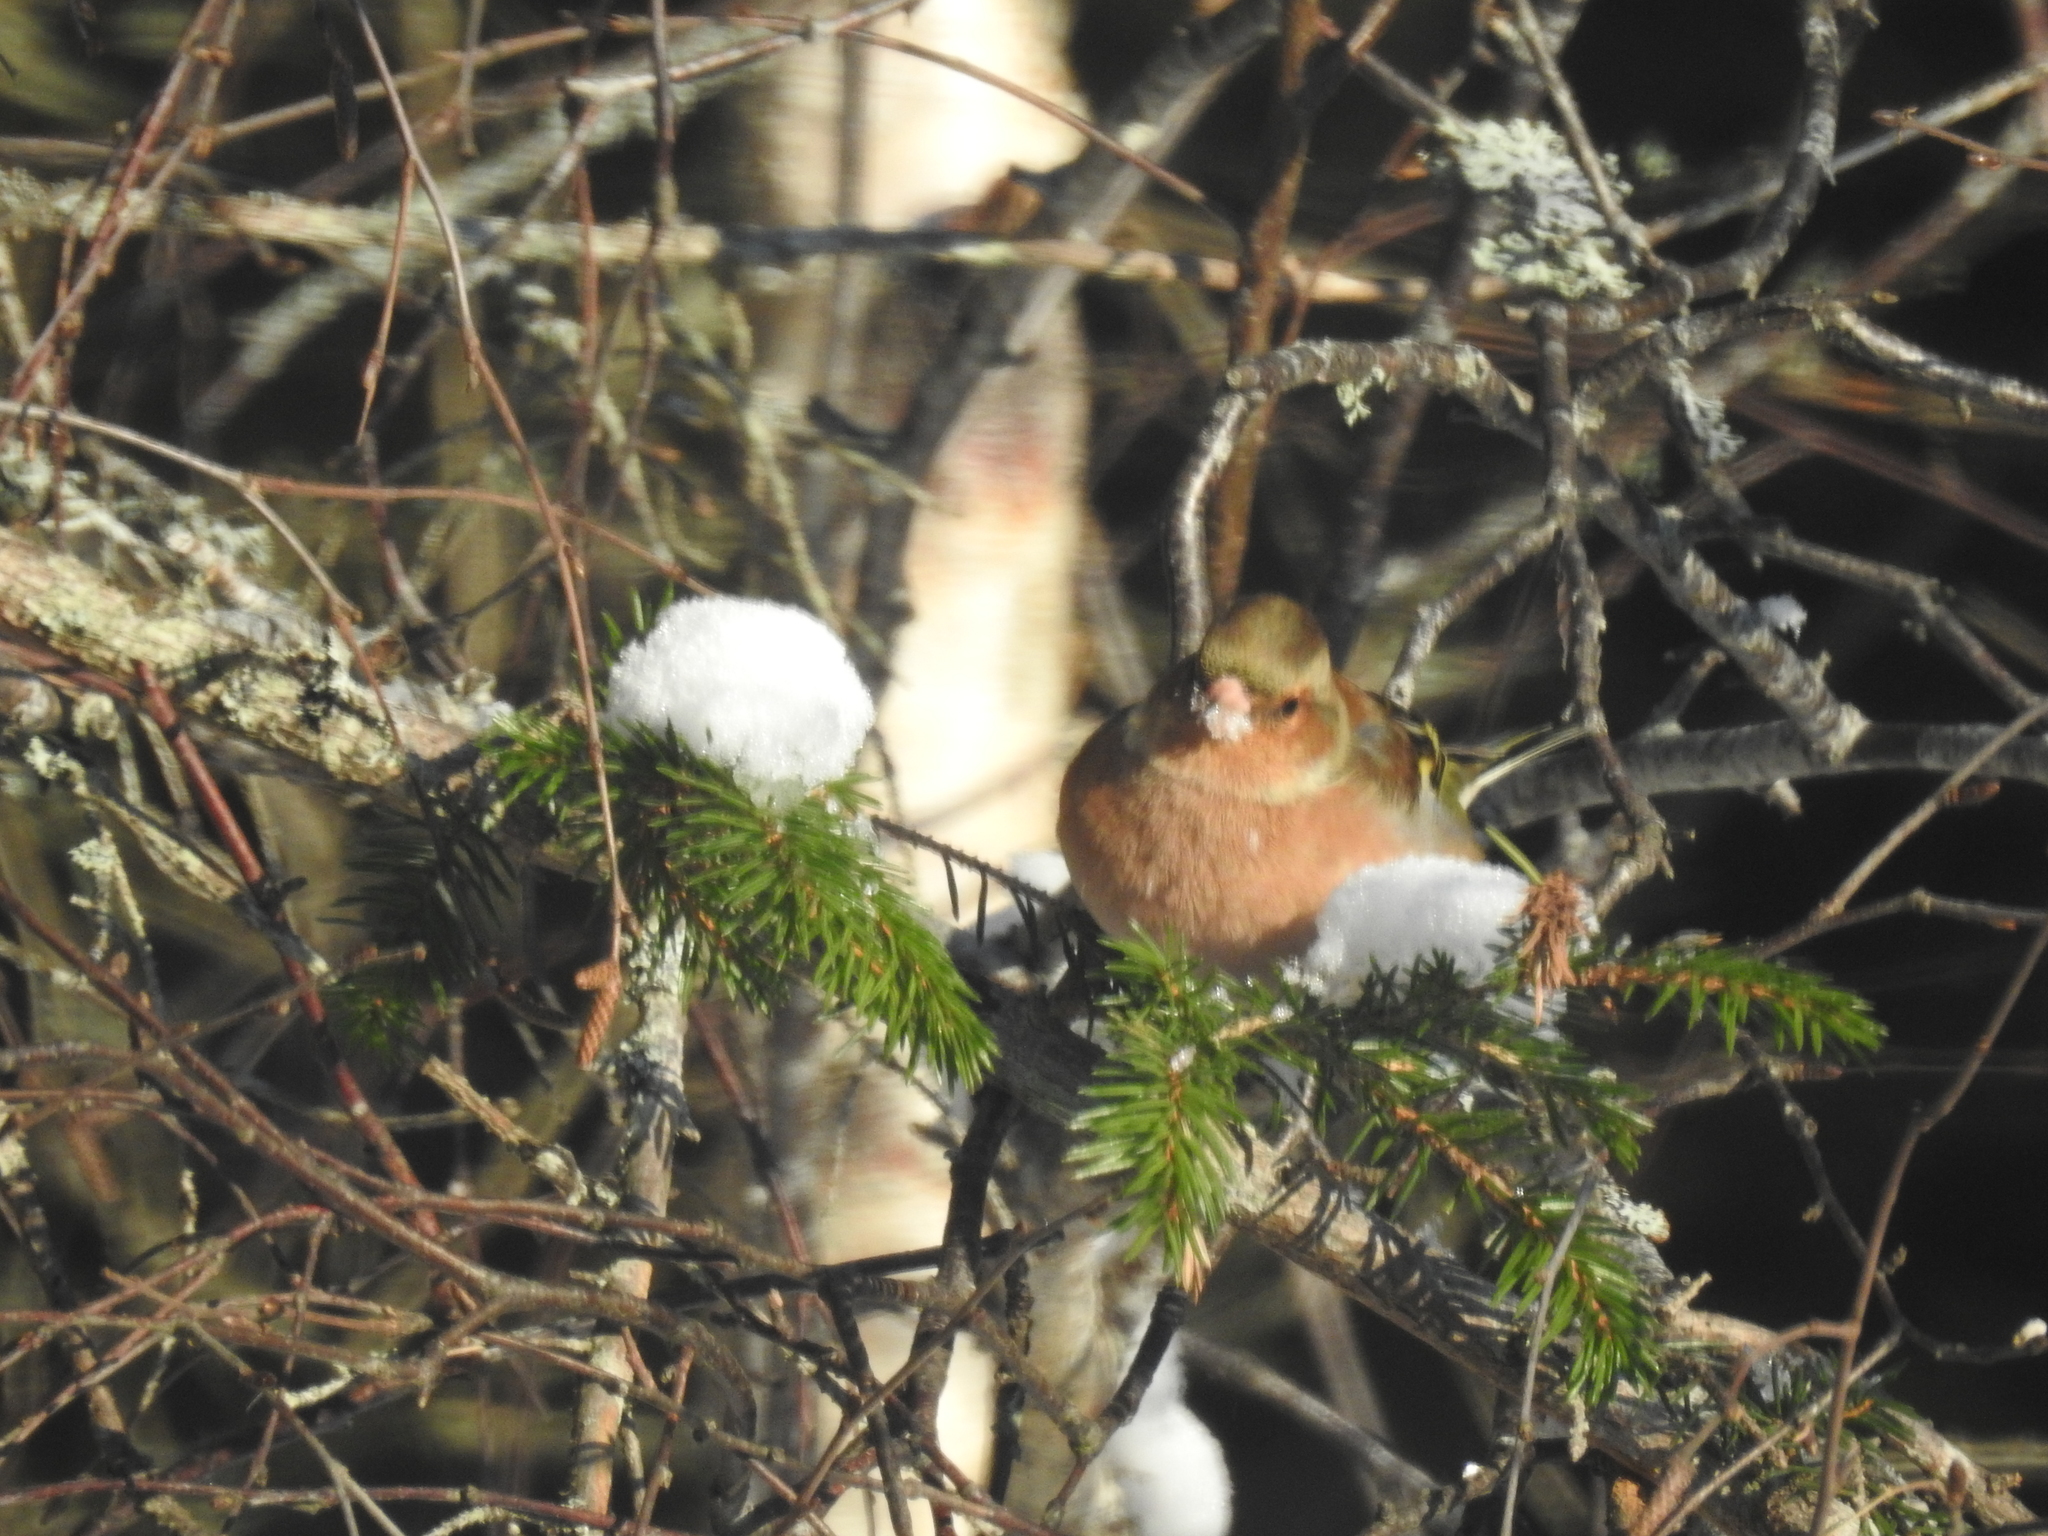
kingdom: Animalia
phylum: Chordata
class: Aves
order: Passeriformes
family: Fringillidae
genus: Fringilla
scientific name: Fringilla coelebs
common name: Common chaffinch
